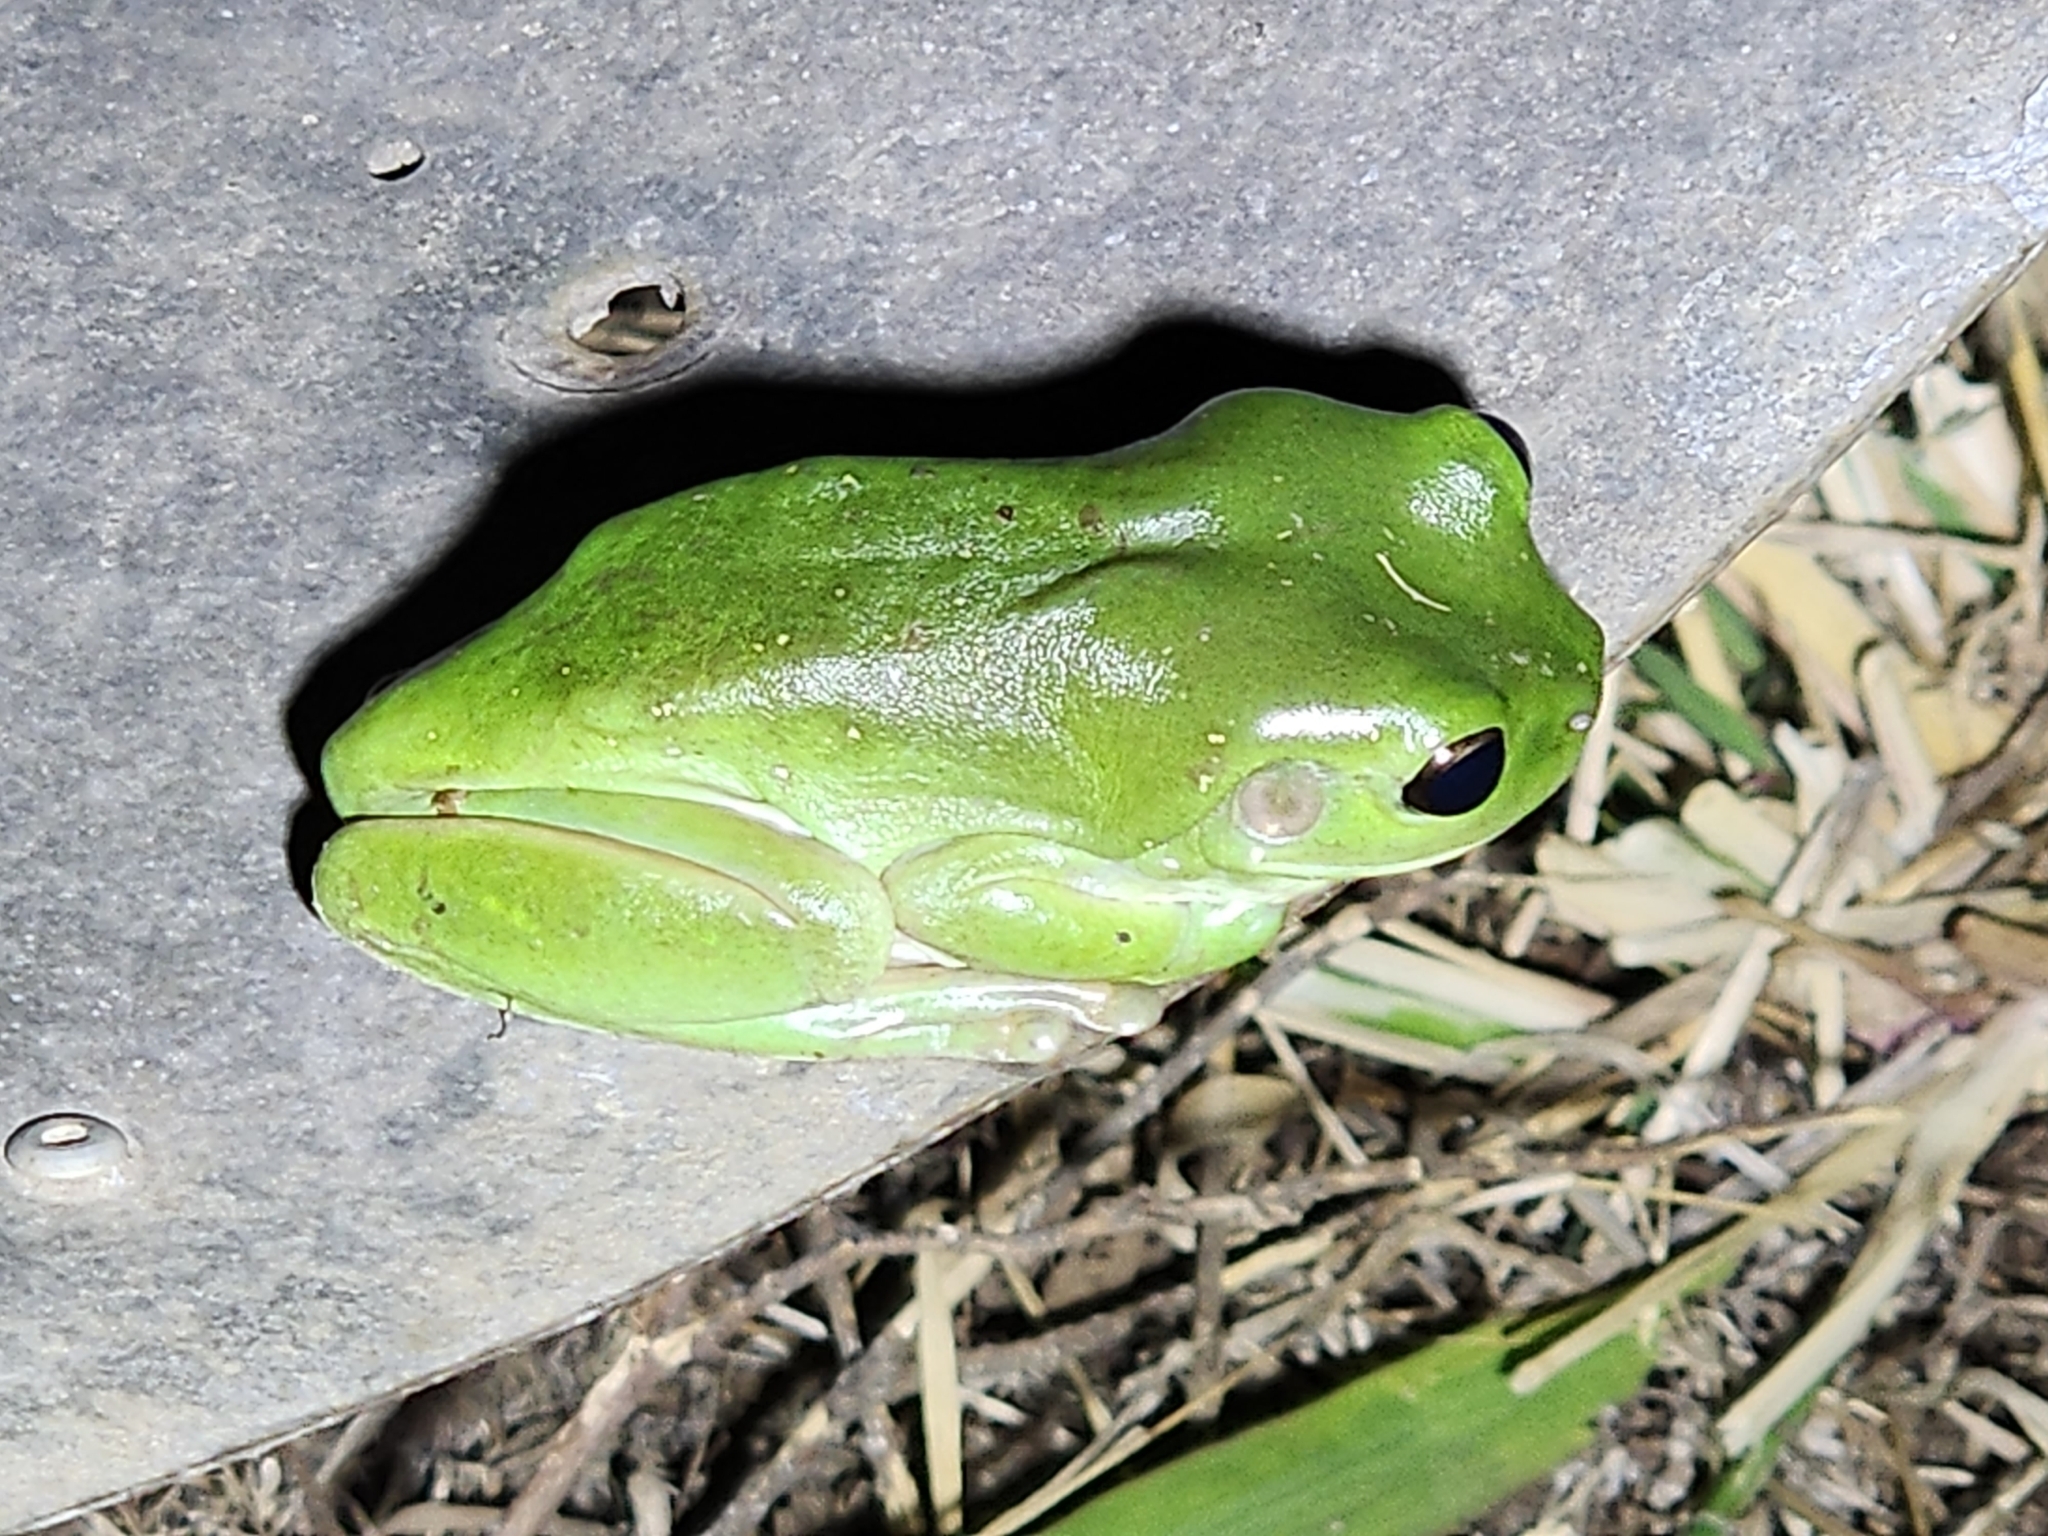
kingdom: Animalia
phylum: Chordata
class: Amphibia
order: Anura
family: Pelodryadidae
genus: Ranoidea
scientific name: Ranoidea caerulea
